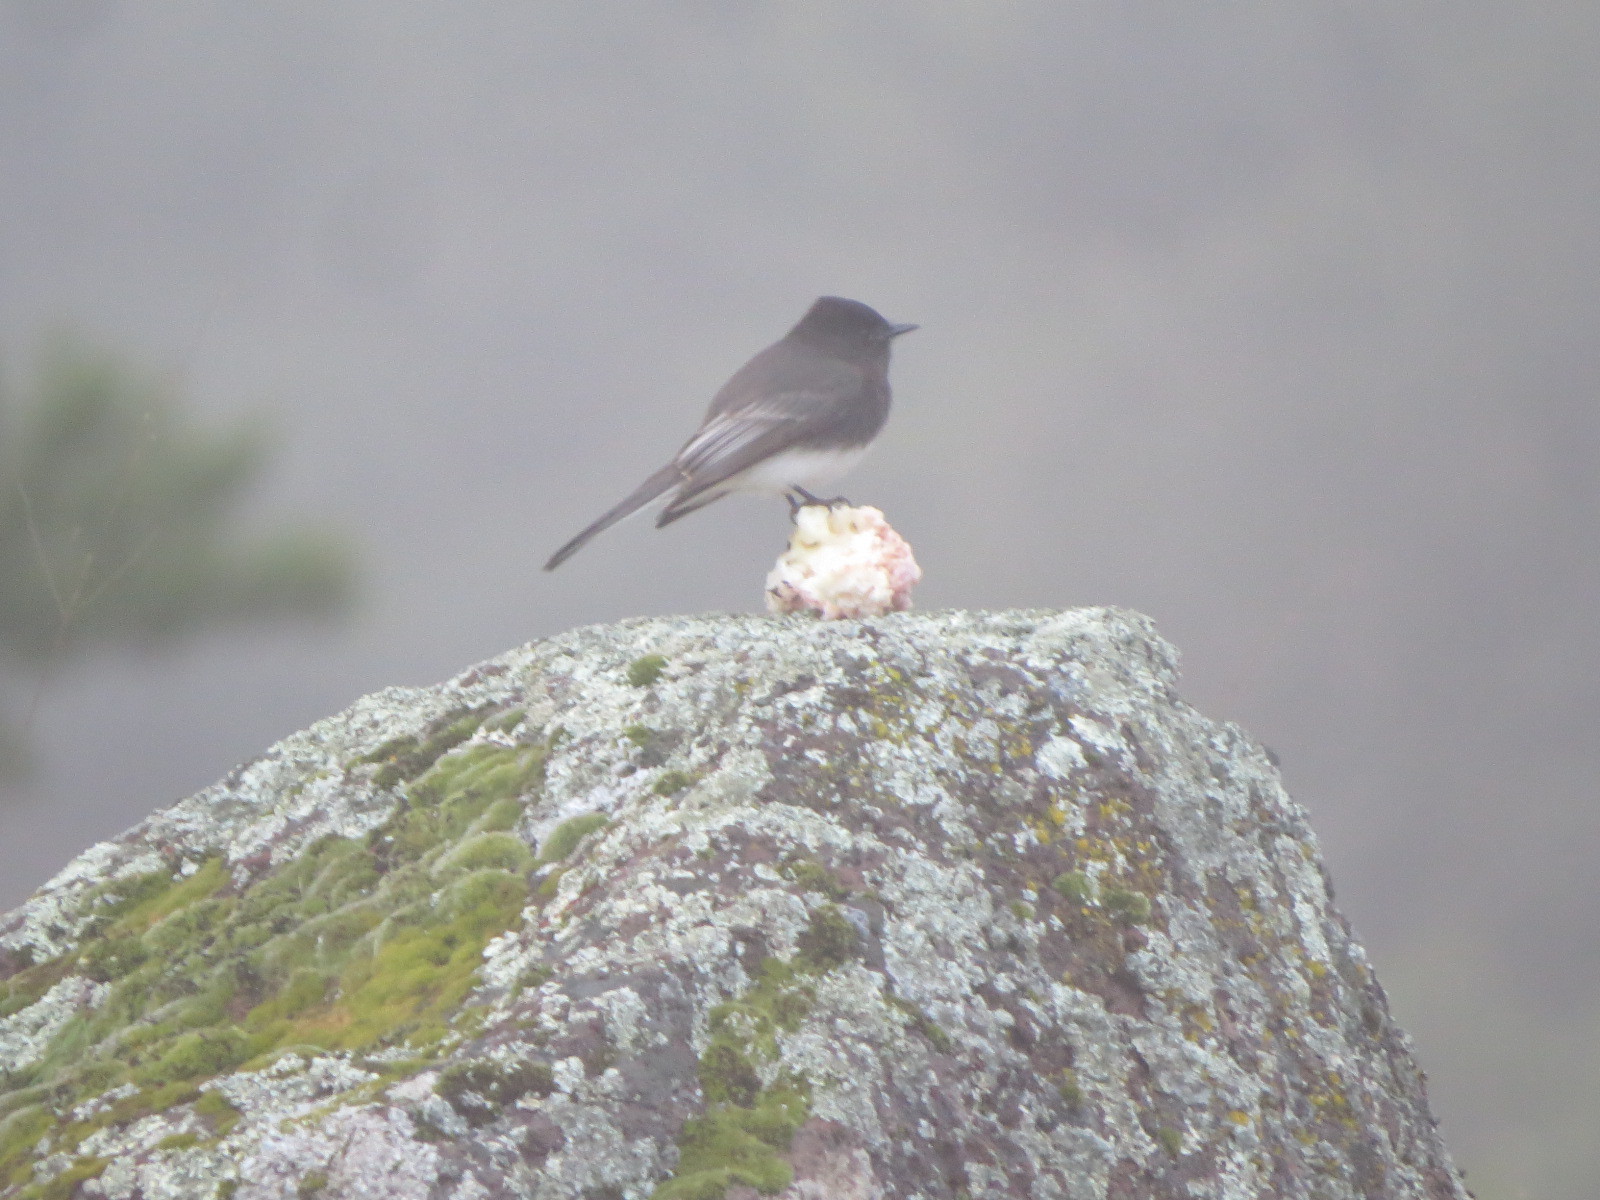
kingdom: Animalia
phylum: Chordata
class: Aves
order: Passeriformes
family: Tyrannidae
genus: Sayornis
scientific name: Sayornis nigricans
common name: Black phoebe
